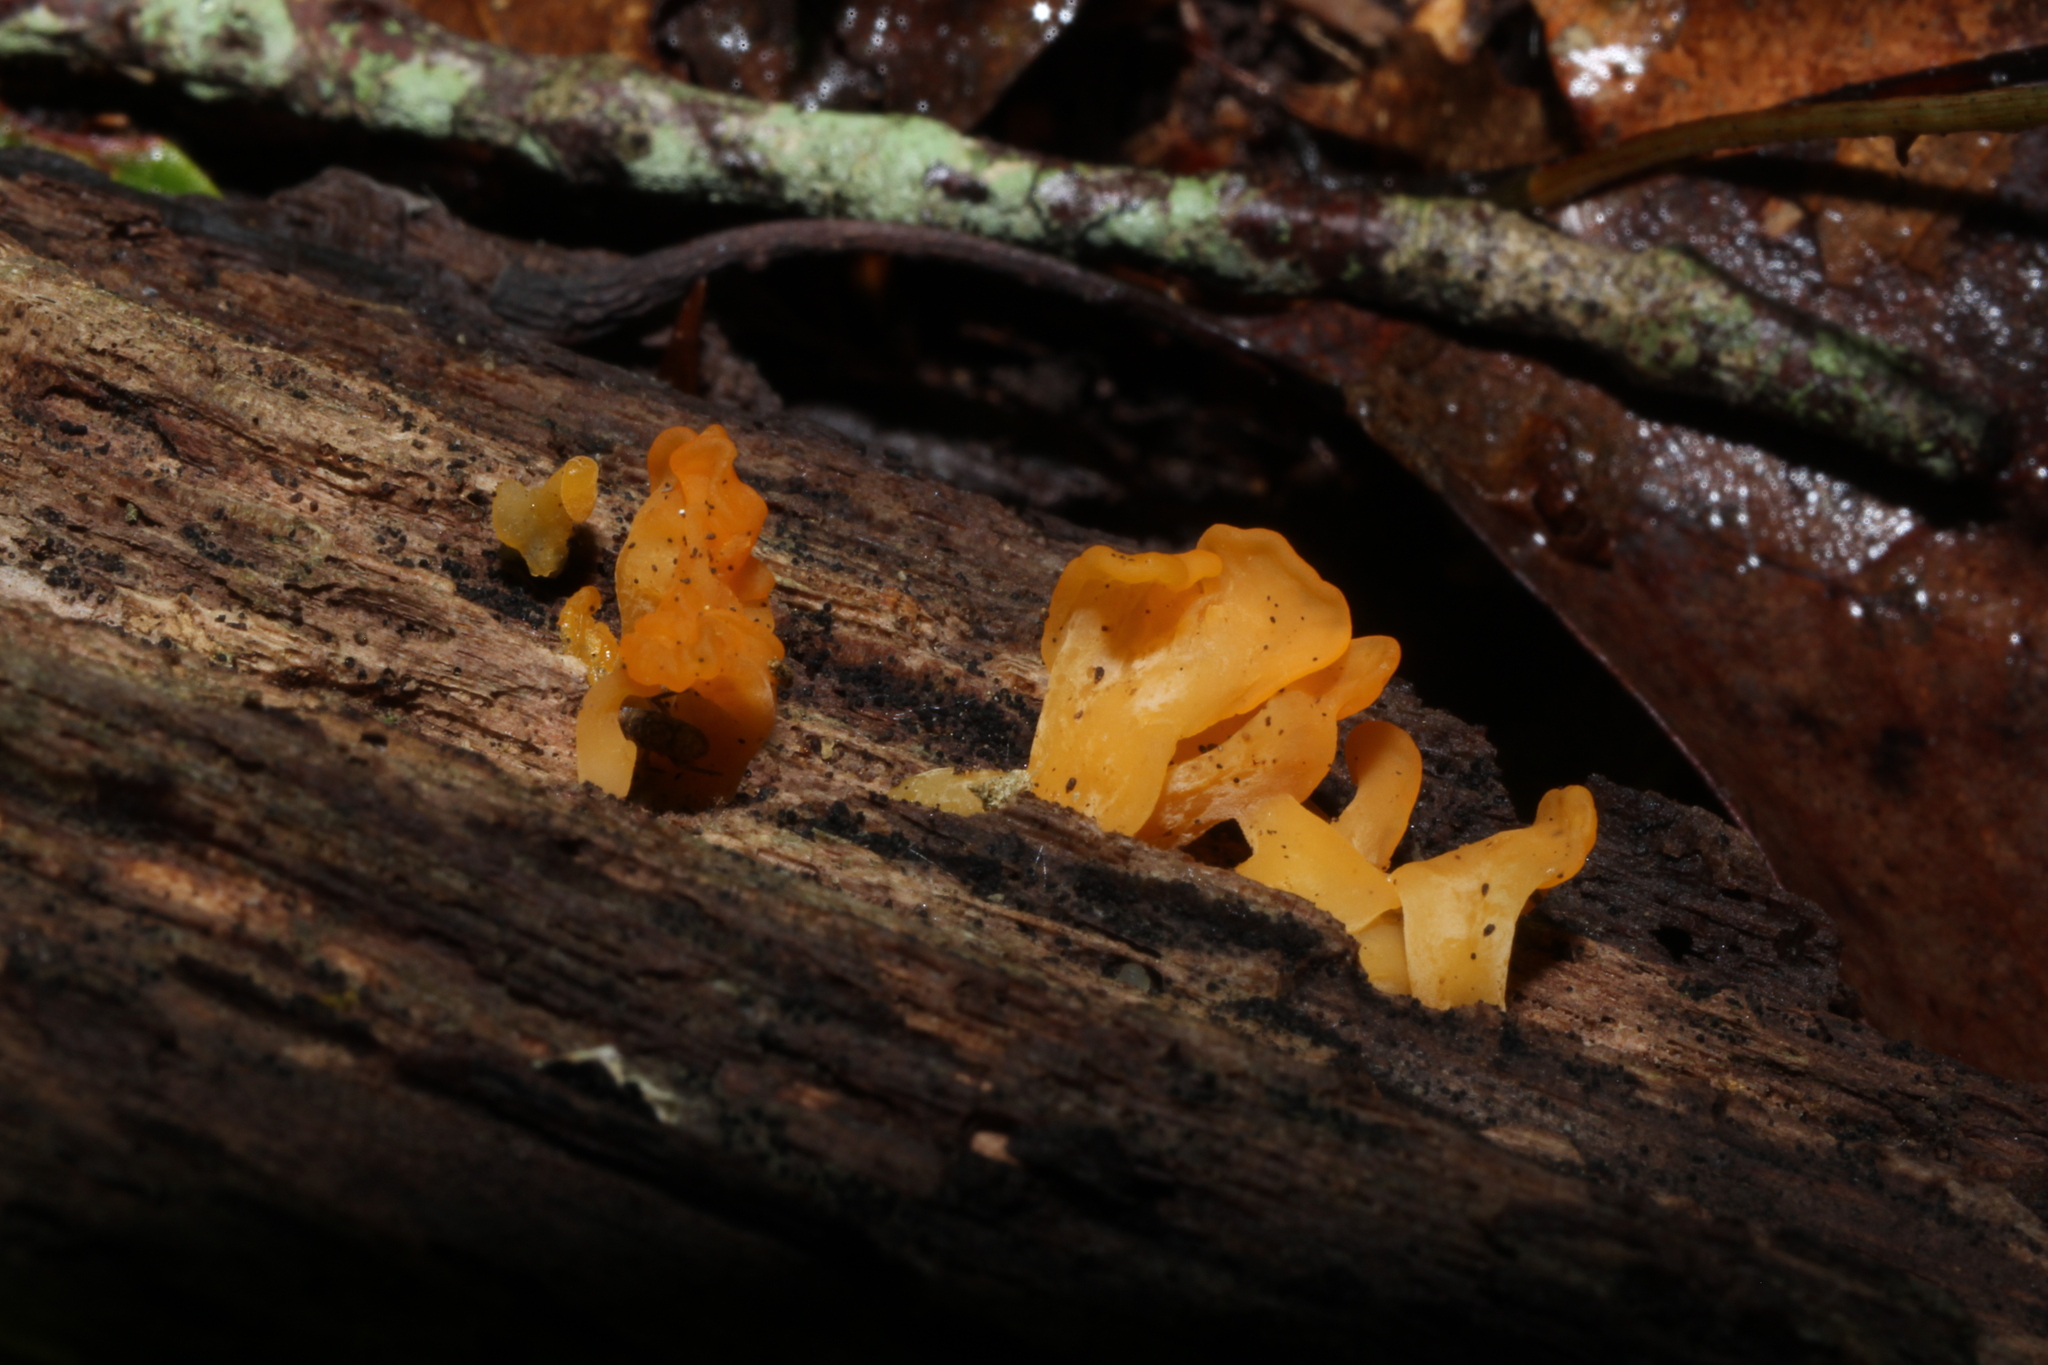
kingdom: Fungi
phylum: Basidiomycota
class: Dacrymycetes
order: Dacrymycetales
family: Dacrymycetaceae
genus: Dacrymyces
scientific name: Dacrymyces spathularius
